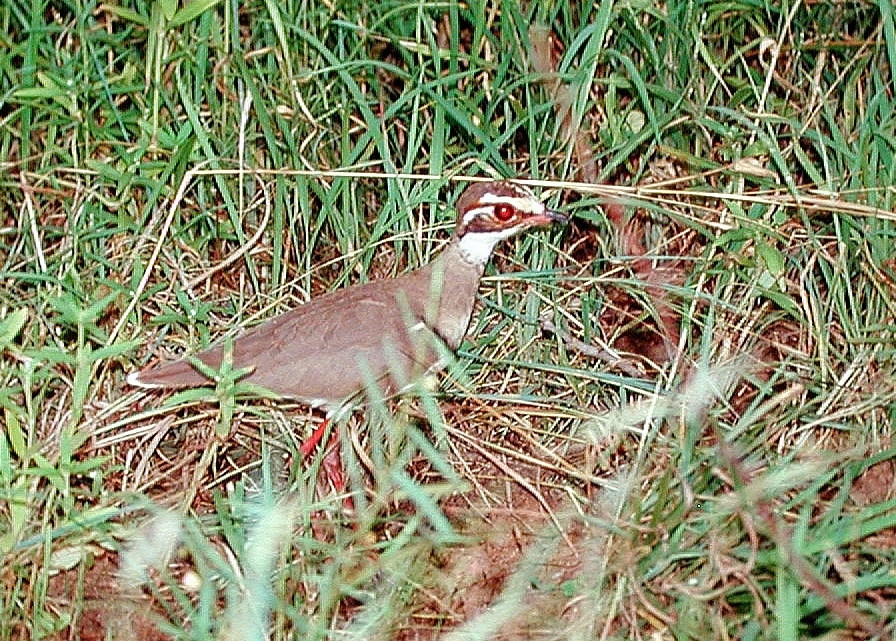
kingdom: Animalia
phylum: Chordata
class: Aves
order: Charadriiformes
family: Glareolidae
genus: Rhinoptilus
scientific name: Rhinoptilus chalcopterus
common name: Bronze-winged courser
